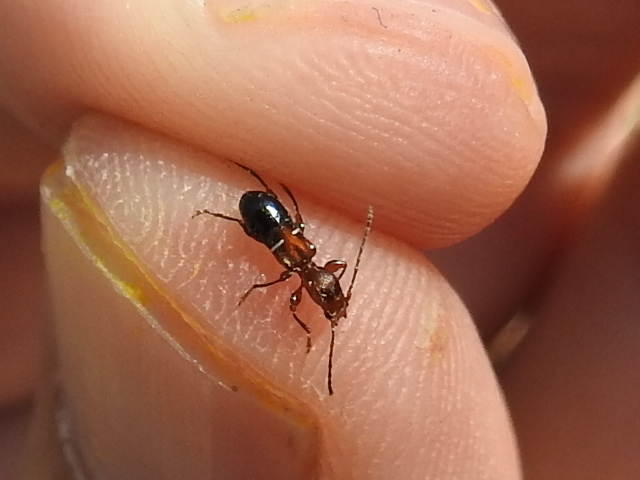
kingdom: Animalia
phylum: Arthropoda
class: Insecta
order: Coleoptera
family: Cerambycidae
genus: Euderces
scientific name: Euderces reichei
